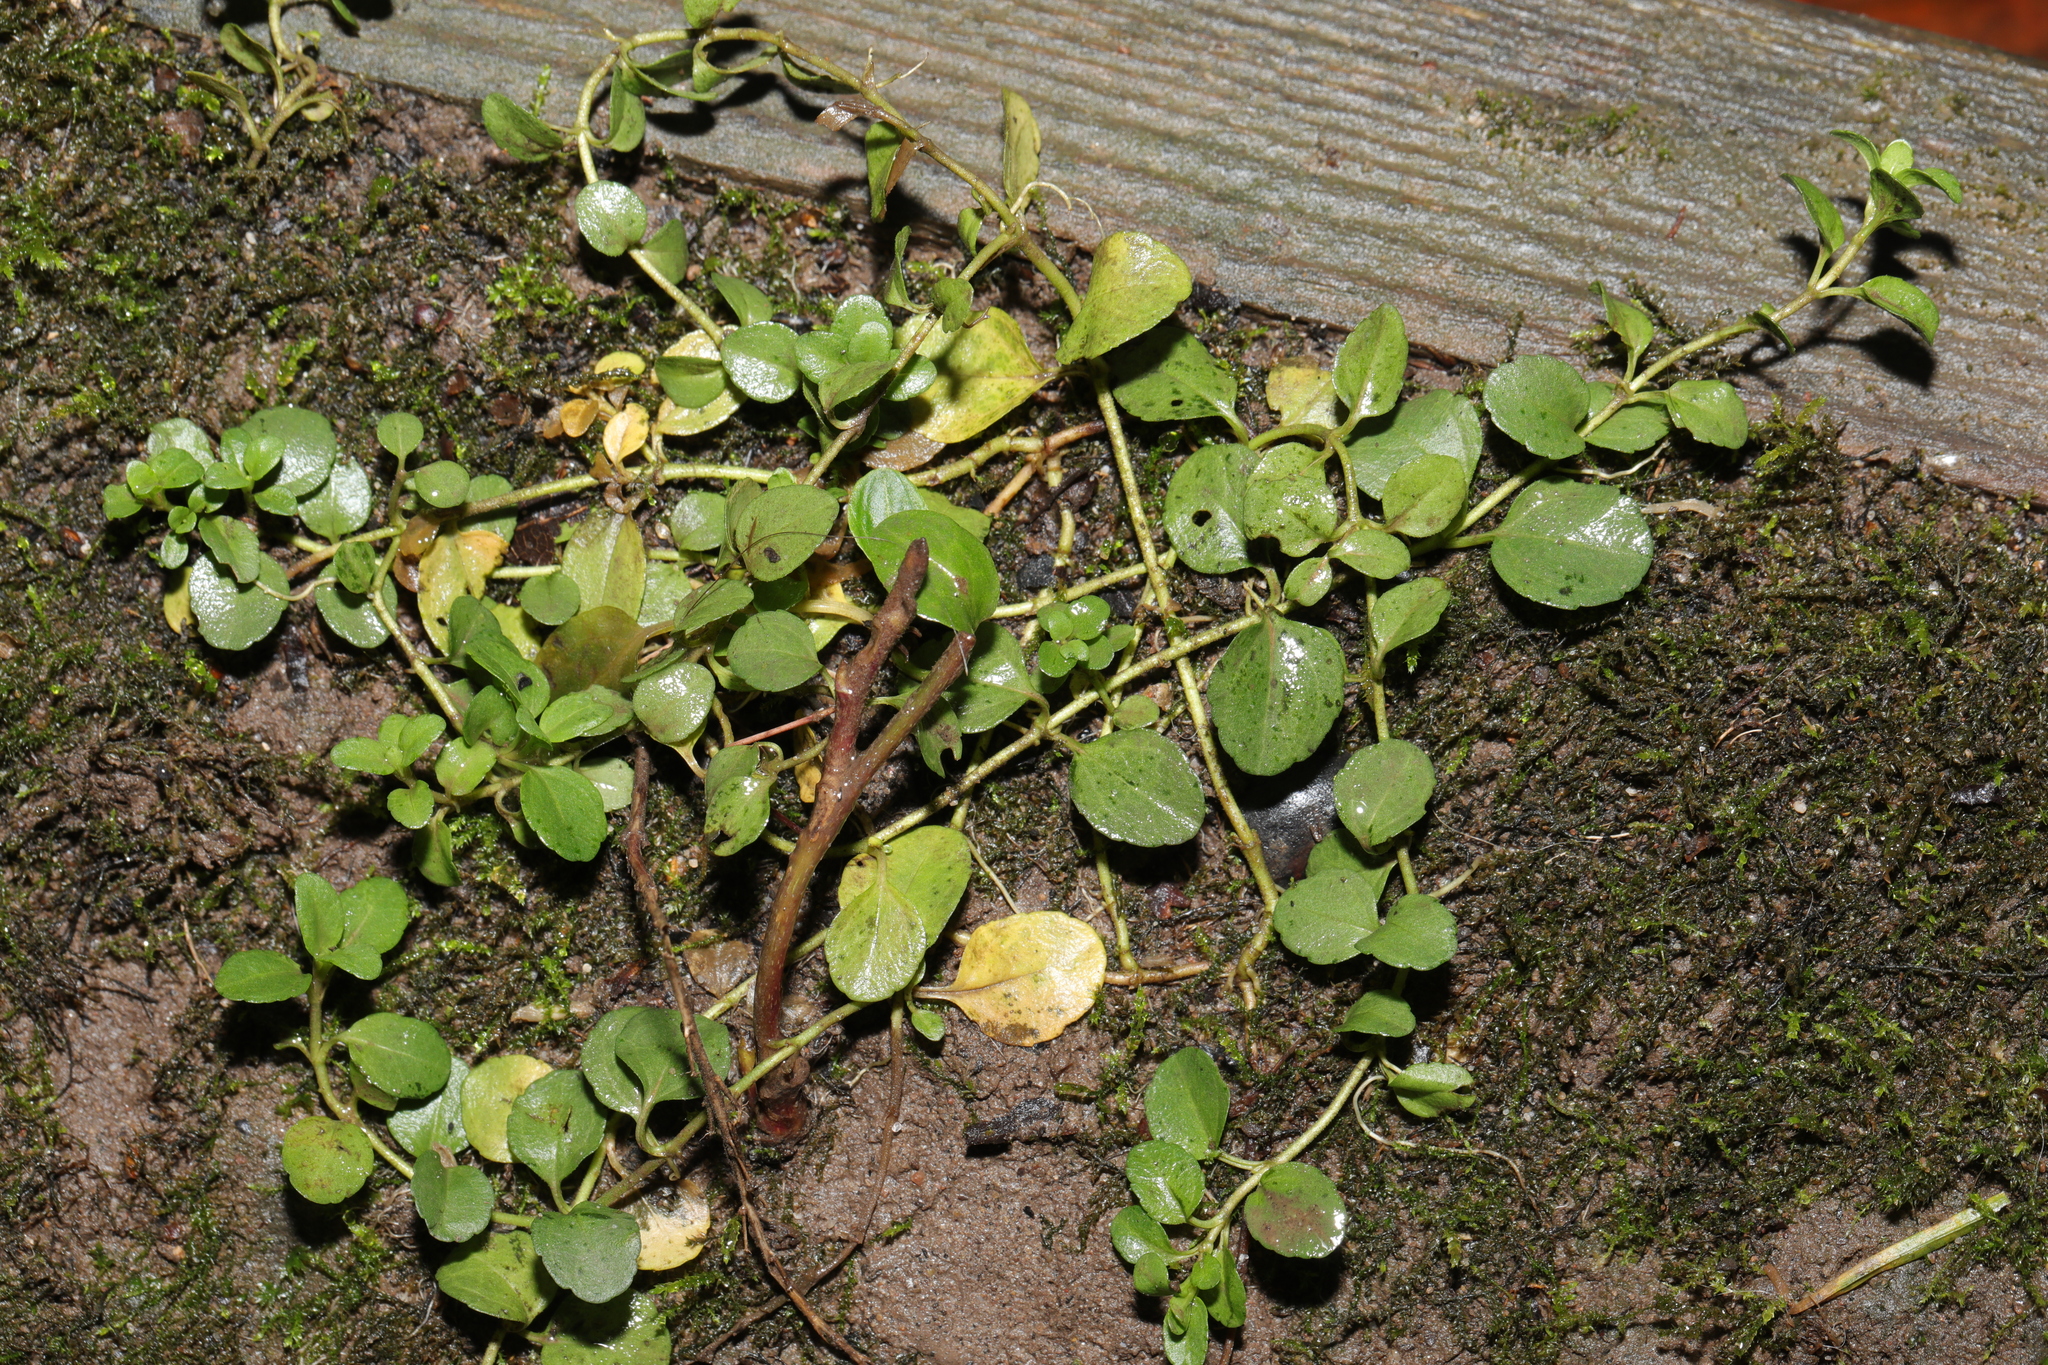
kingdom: Plantae
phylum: Tracheophyta
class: Magnoliopsida
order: Lamiales
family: Plantaginaceae
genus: Veronica
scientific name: Veronica serpyllifolia
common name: Thyme-leaved speedwell
